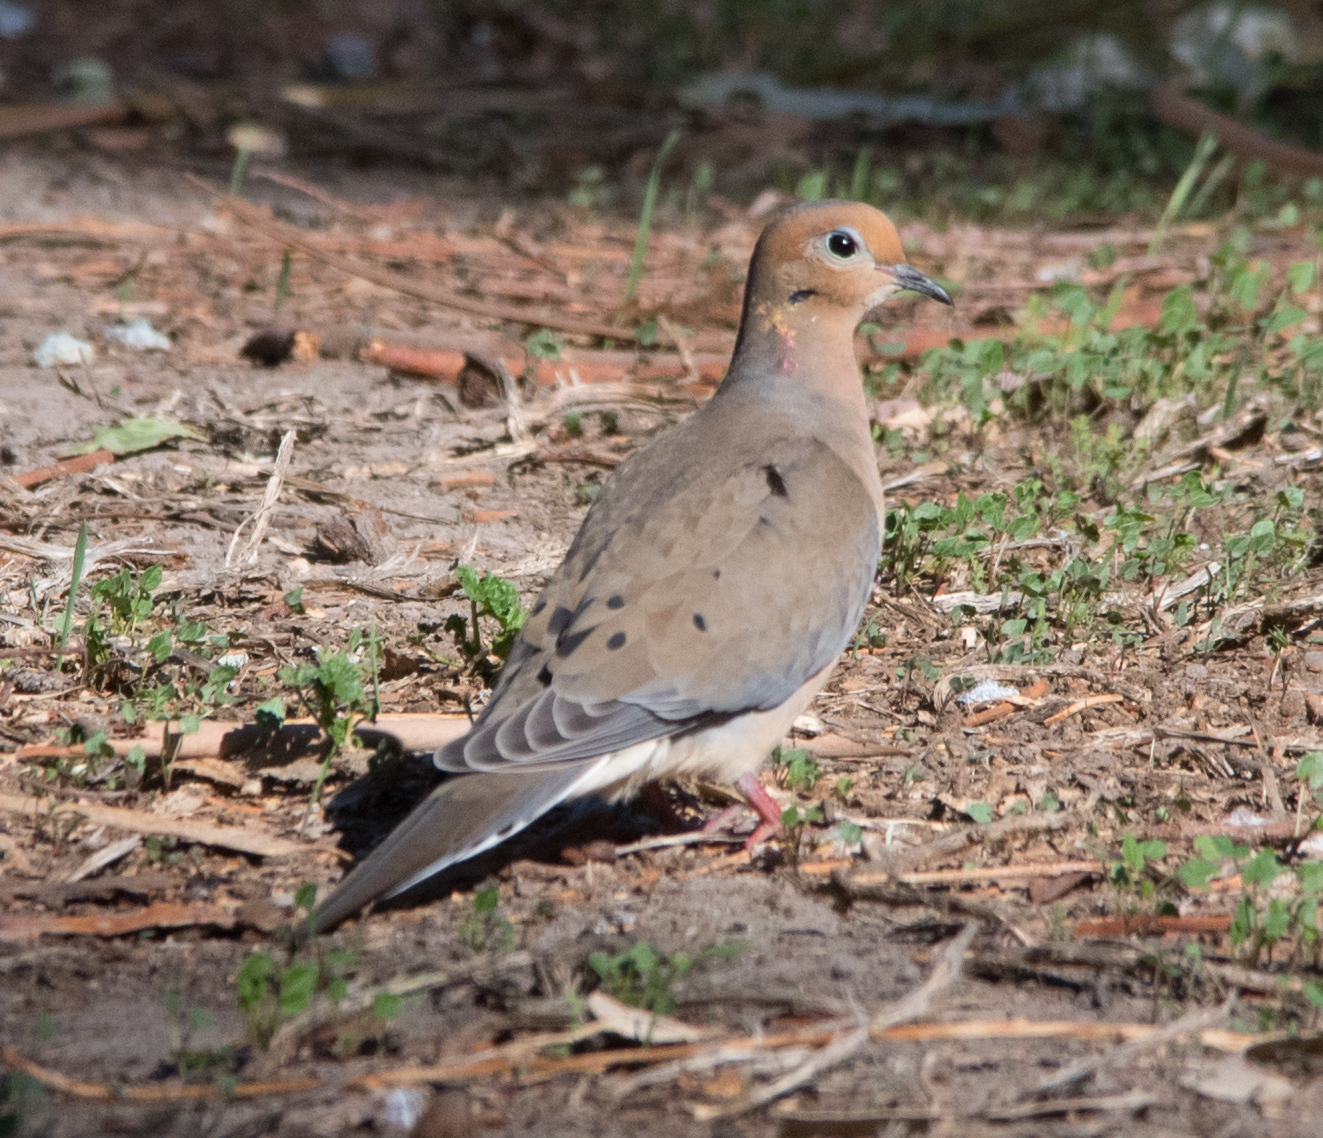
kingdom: Animalia
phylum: Chordata
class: Aves
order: Columbiformes
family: Columbidae
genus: Zenaida
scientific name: Zenaida macroura
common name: Mourning dove
